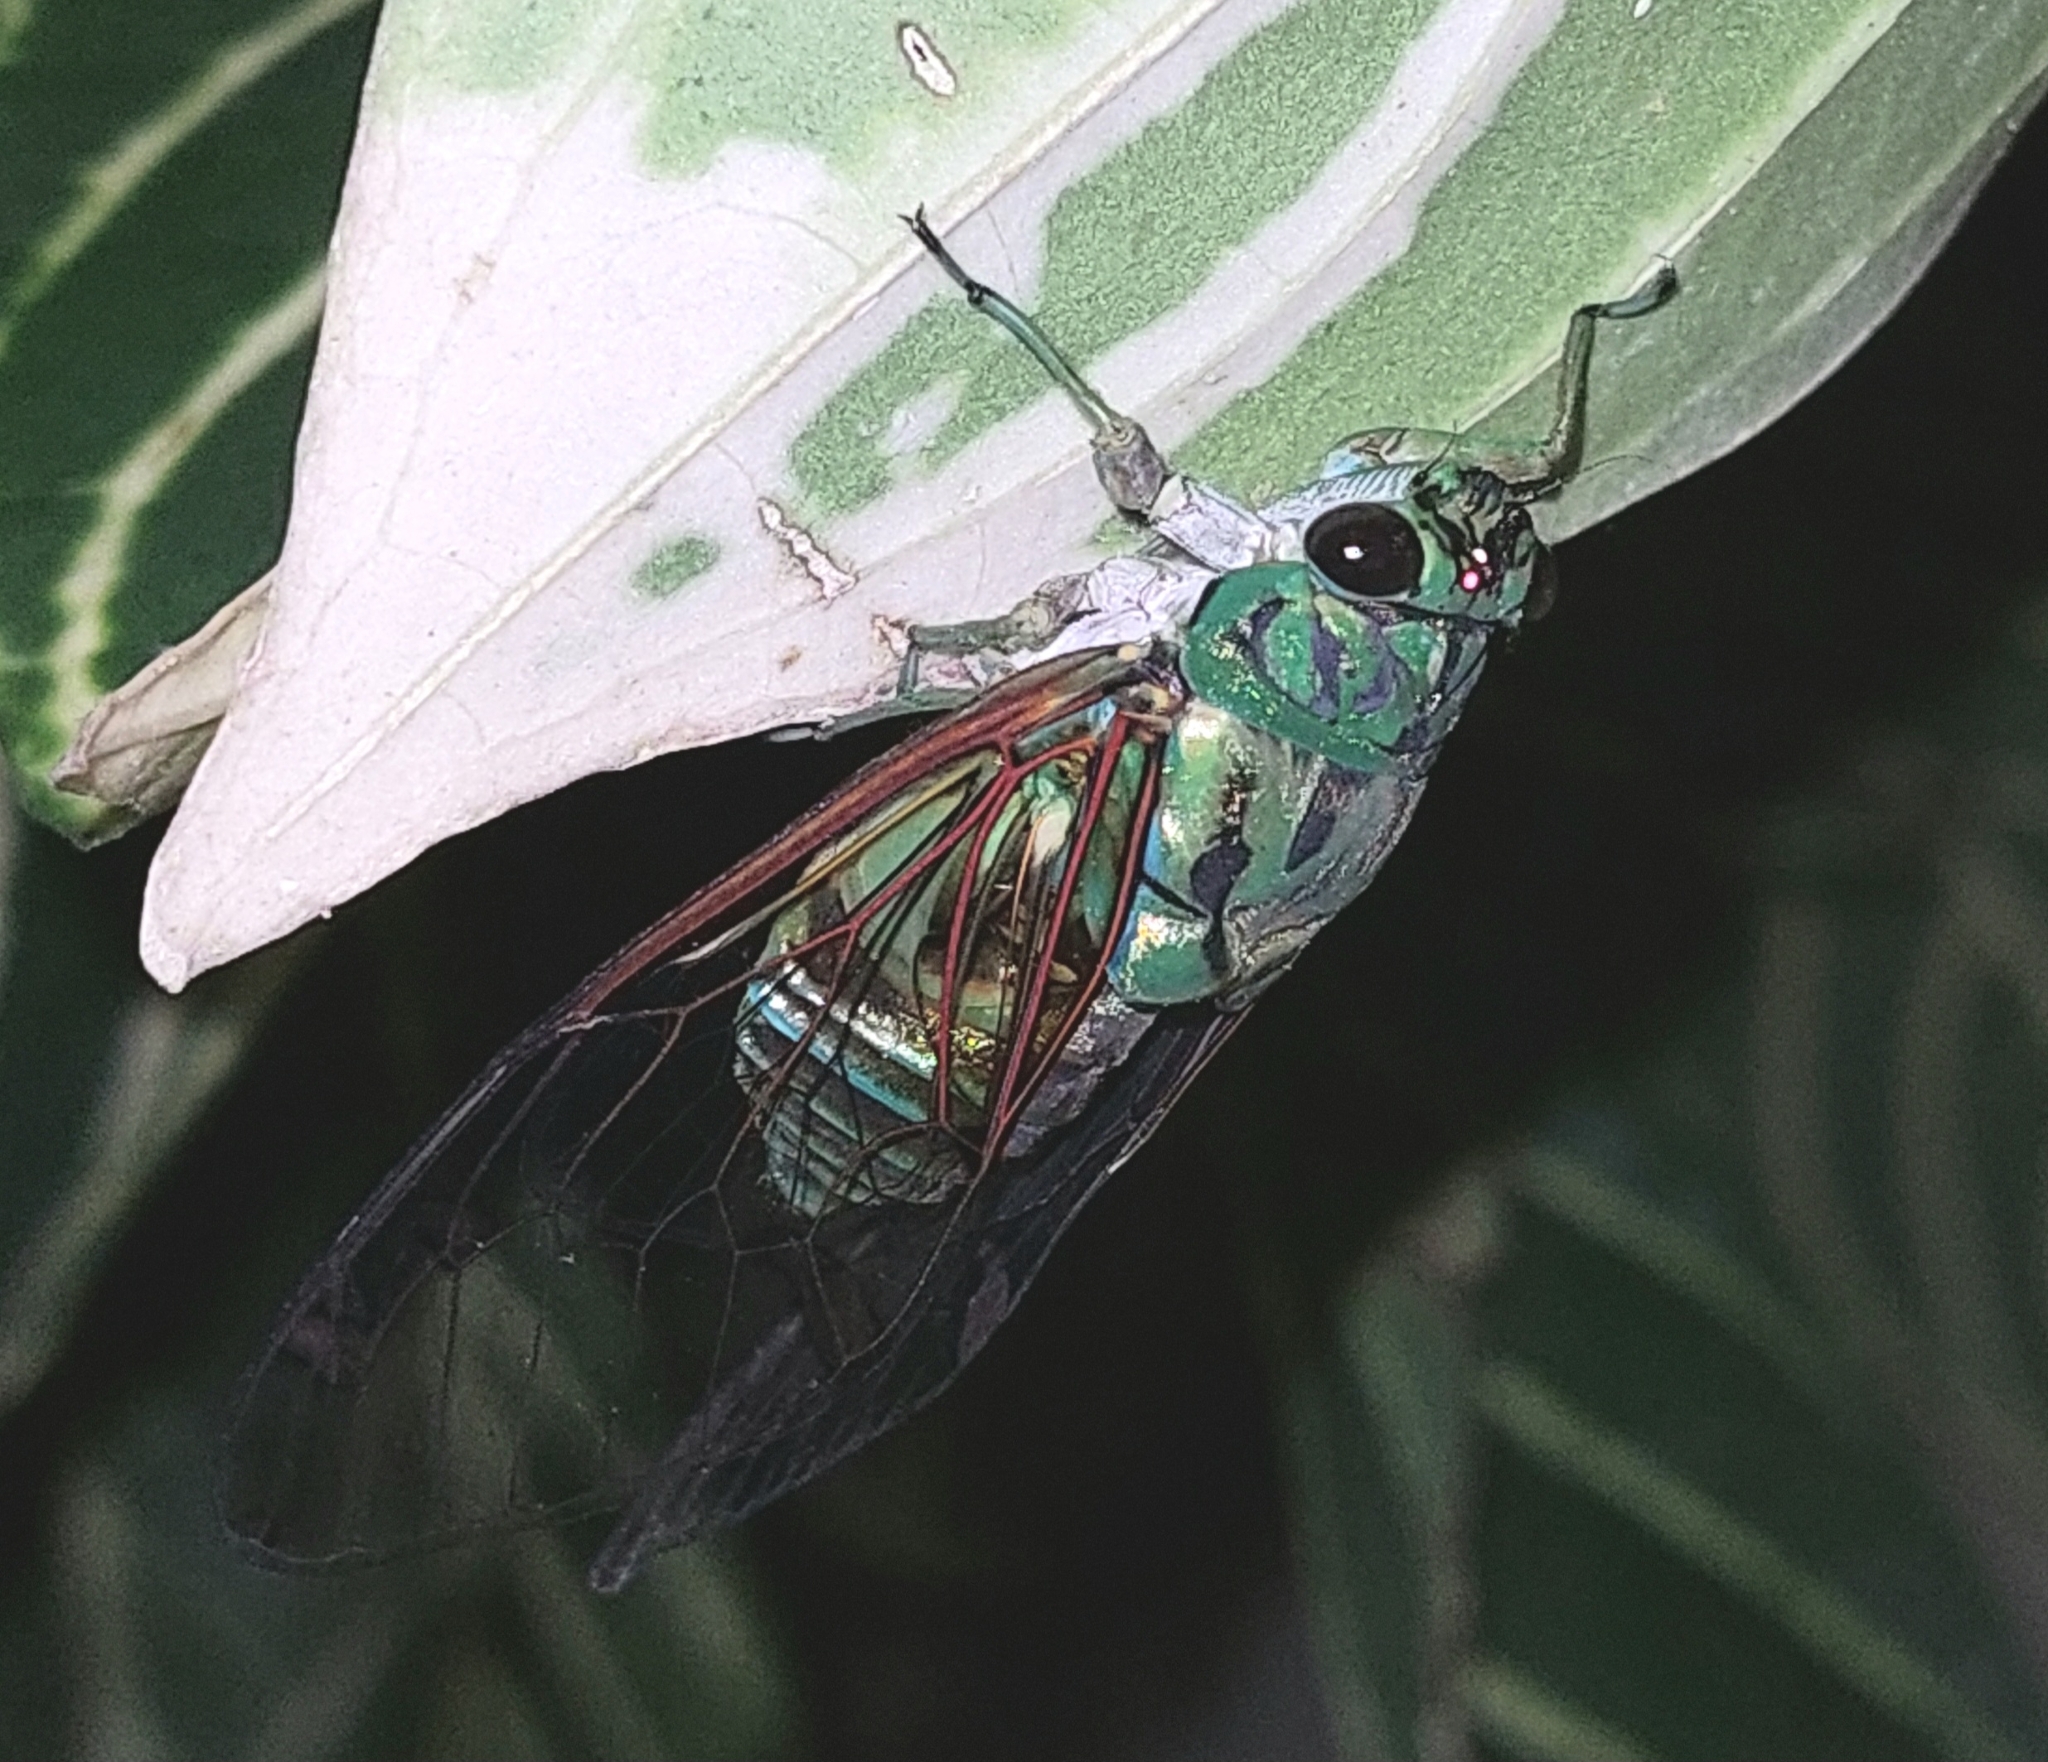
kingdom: Animalia
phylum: Arthropoda
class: Insecta
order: Hemiptera
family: Cicadidae
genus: Zammara
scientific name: Zammara smaragdula
